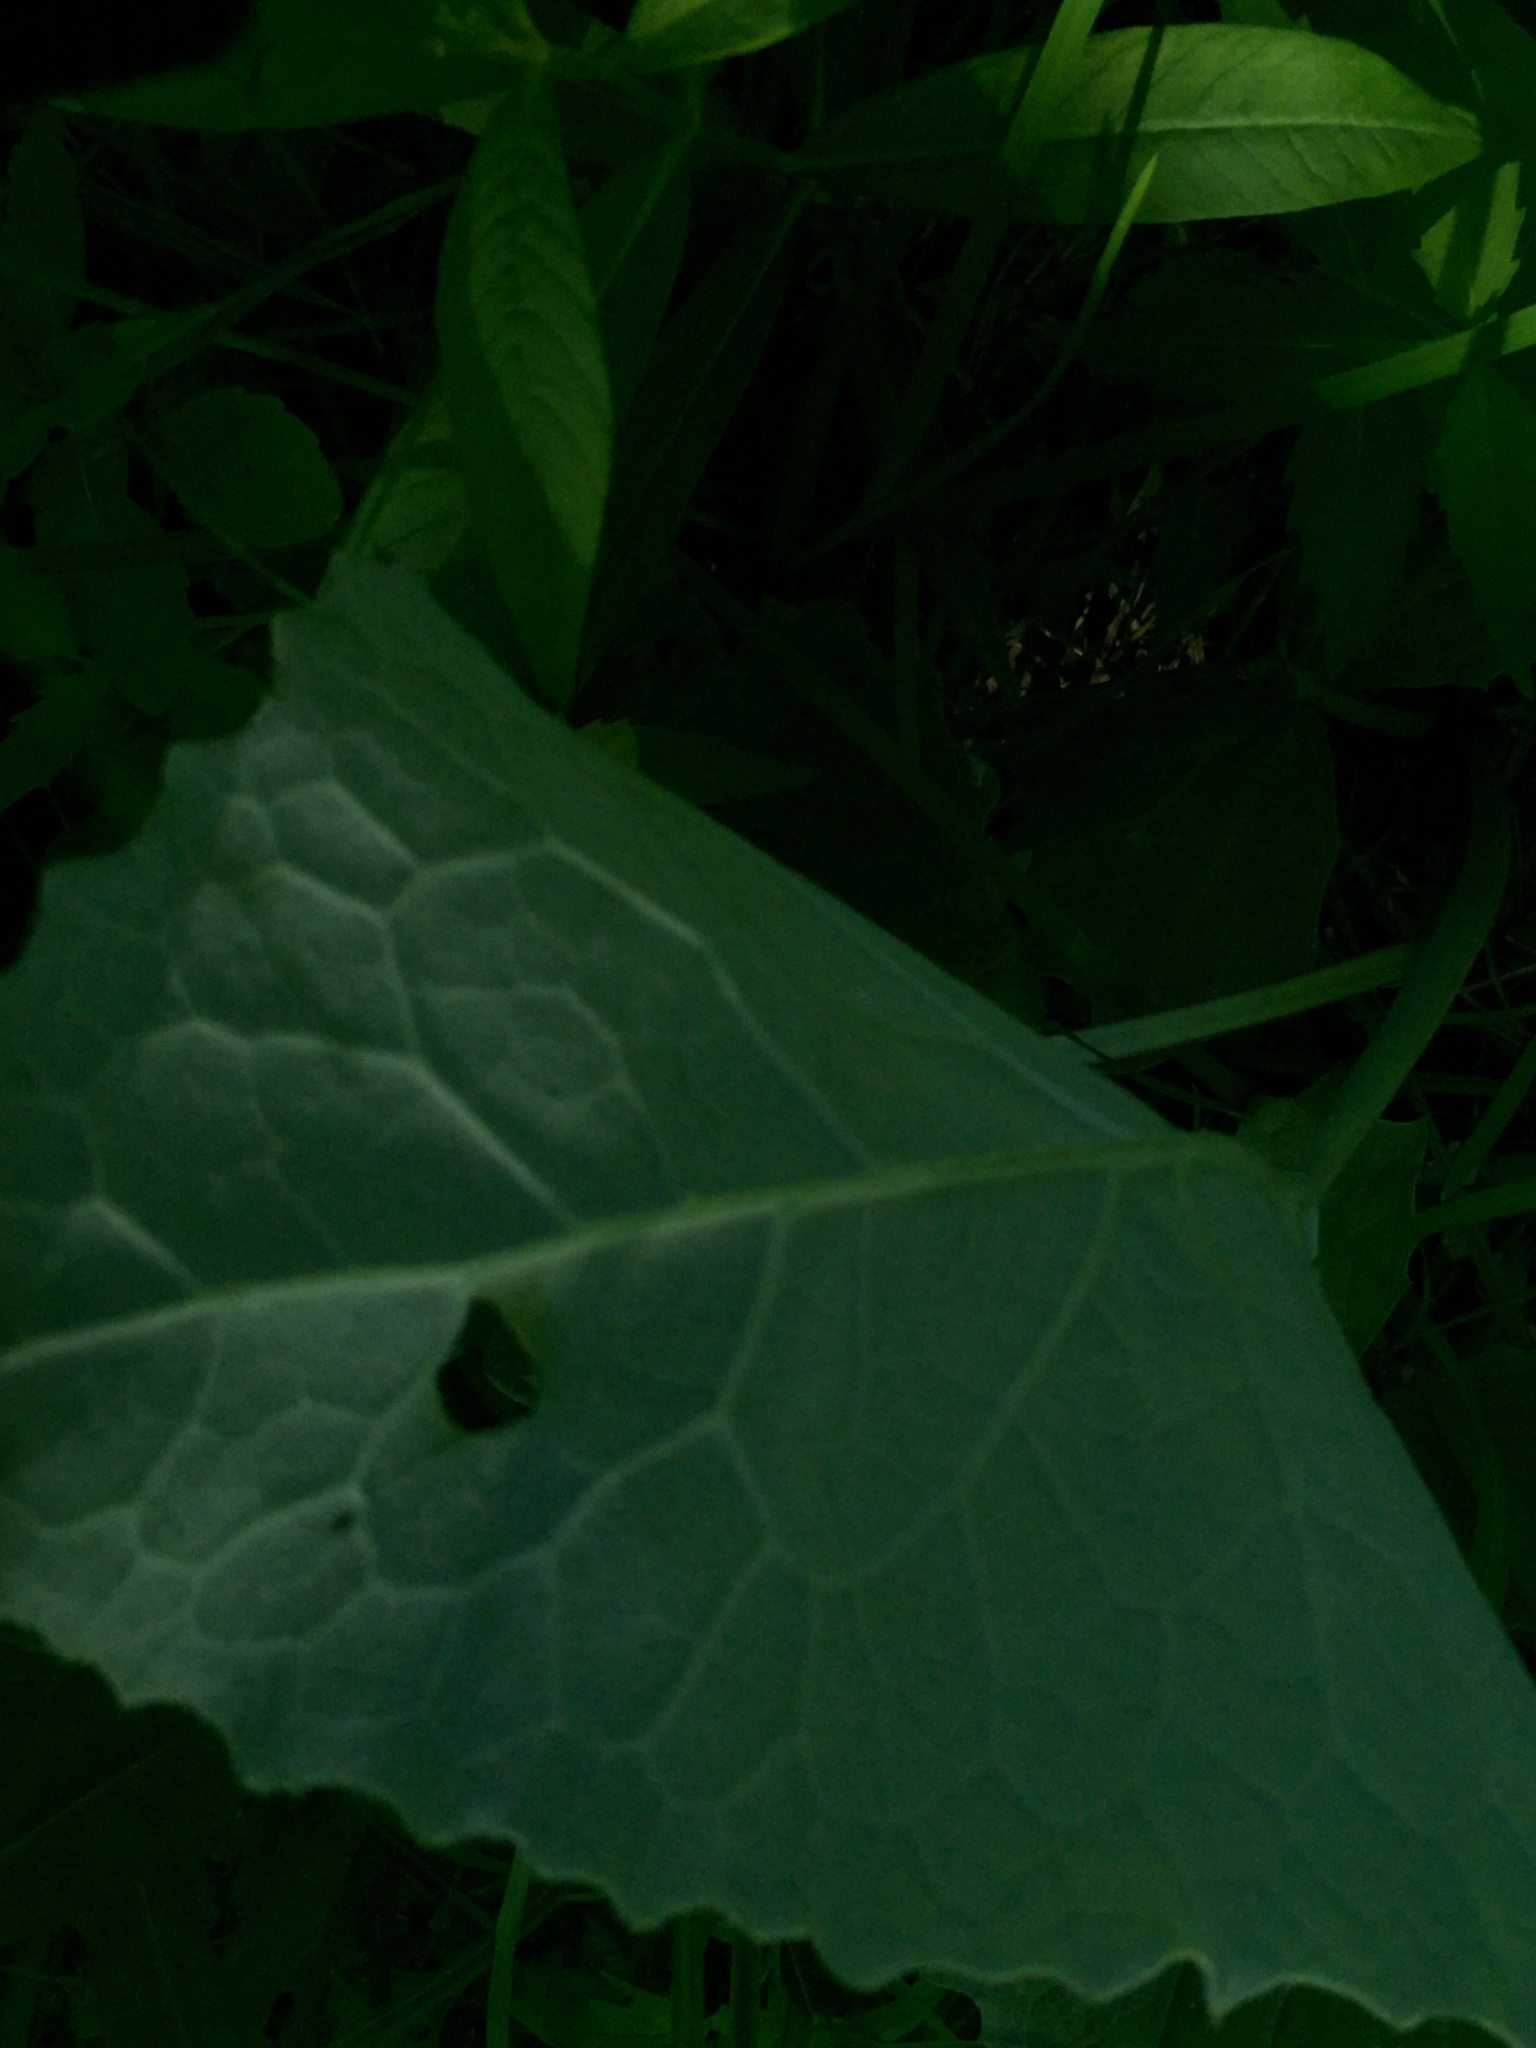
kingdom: Plantae
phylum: Tracheophyta
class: Magnoliopsida
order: Asterales
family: Asteraceae
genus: Petasites
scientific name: Petasites frigidus
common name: Arctic butterbur
